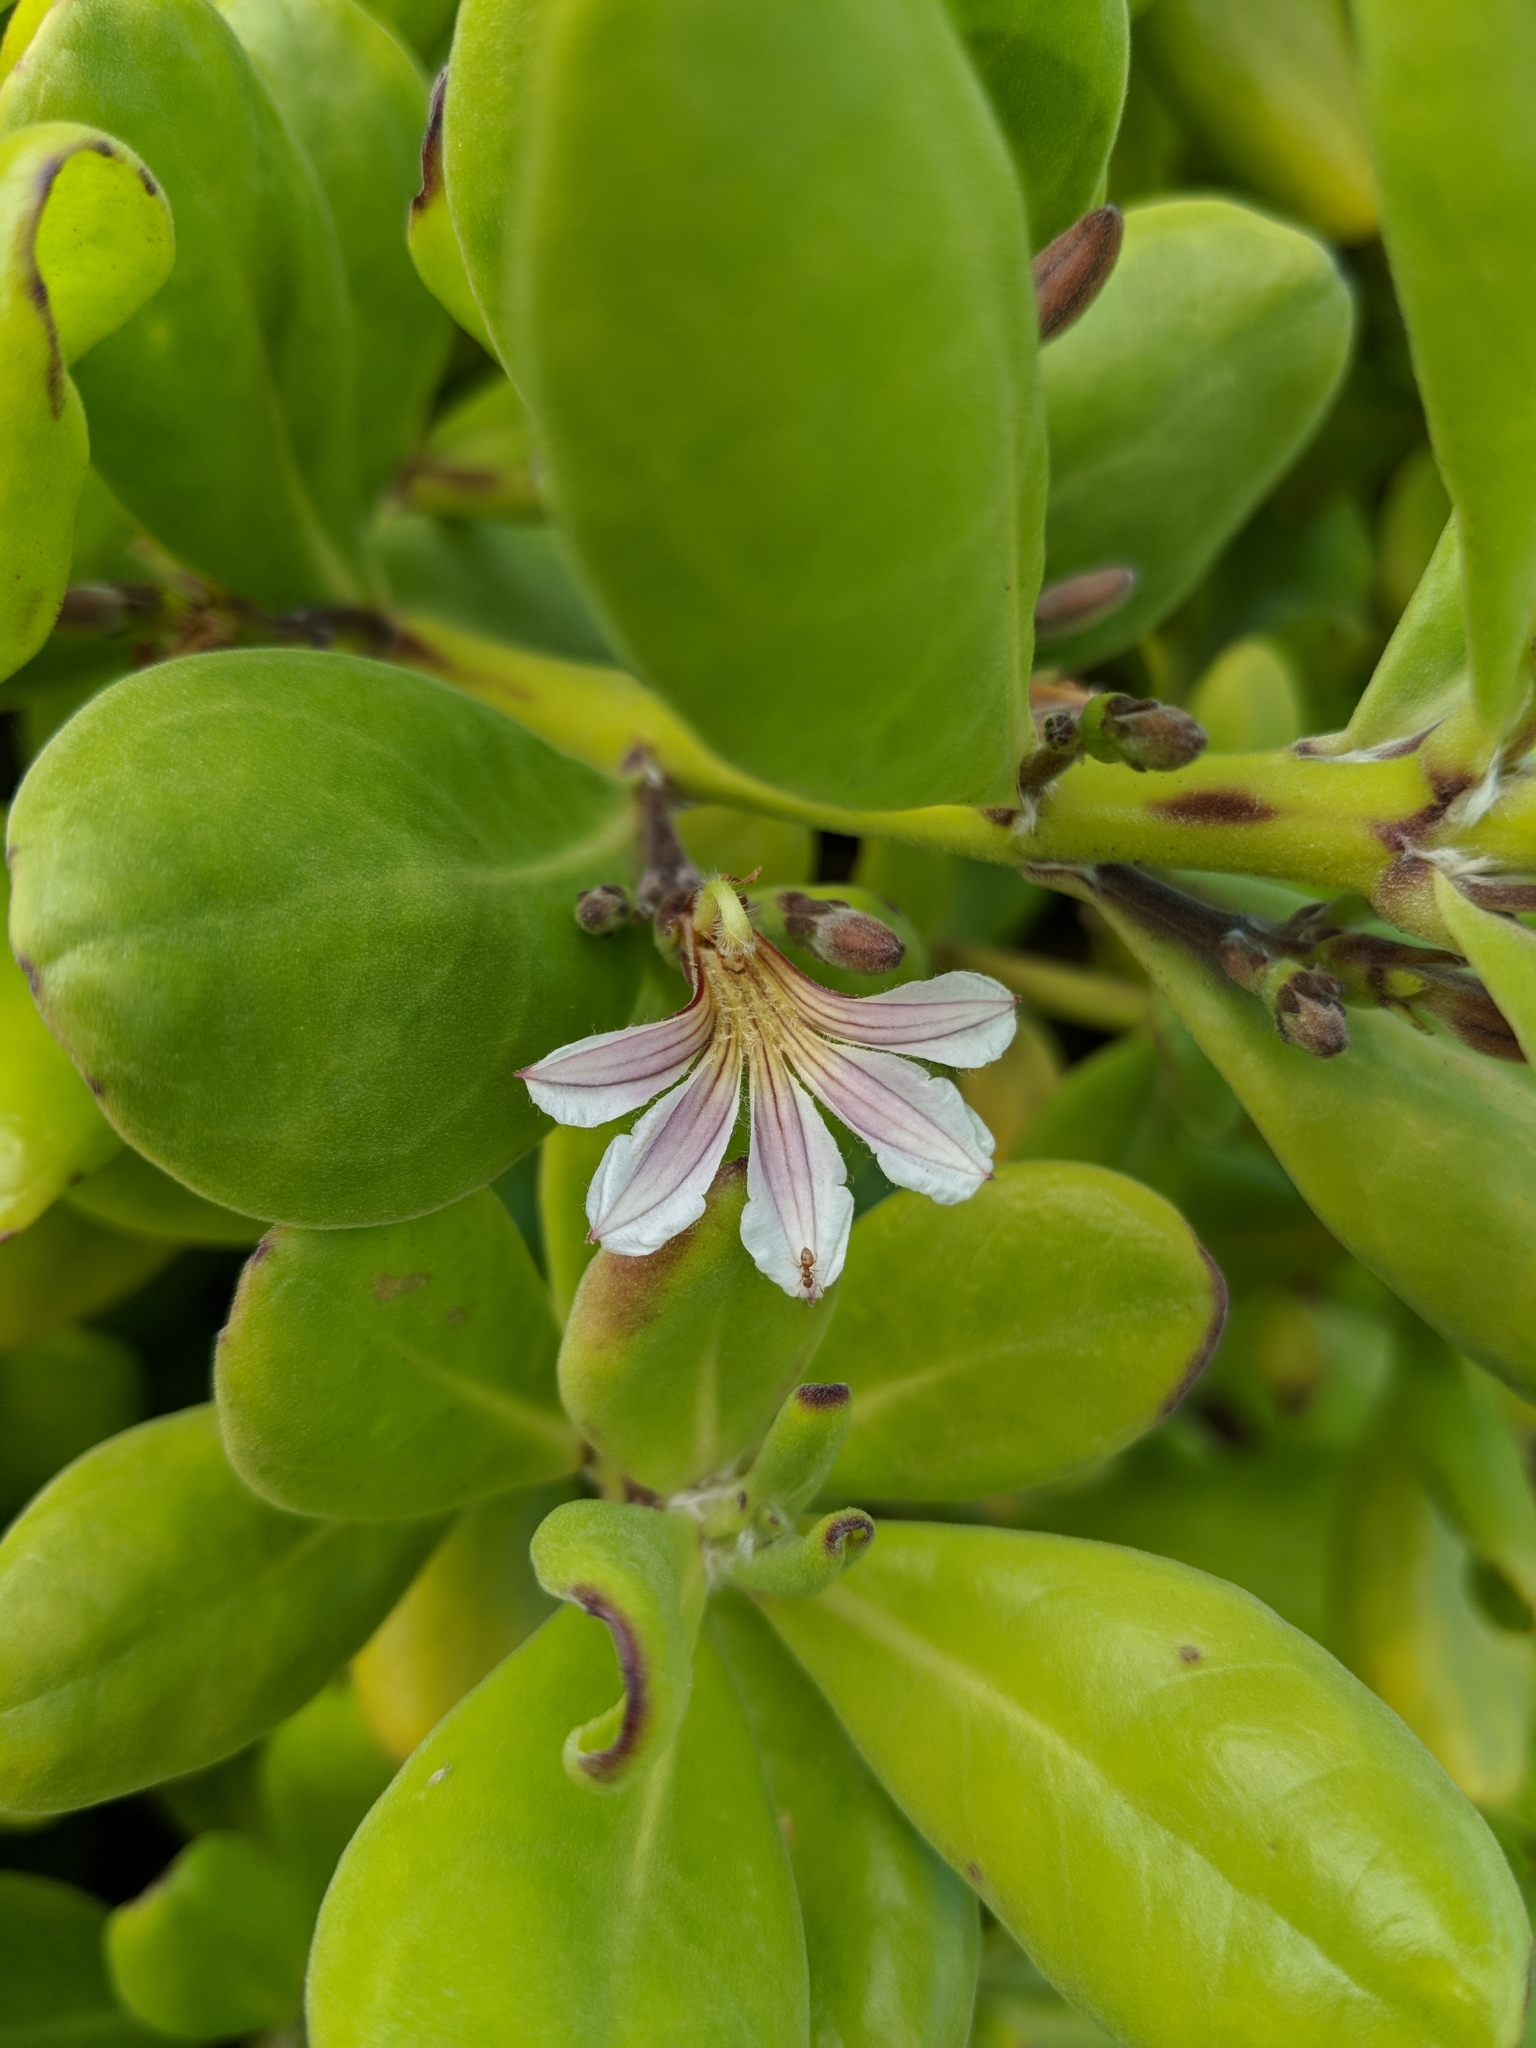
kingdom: Plantae
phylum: Tracheophyta
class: Magnoliopsida
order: Asterales
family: Goodeniaceae
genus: Scaevola
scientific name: Scaevola taccada
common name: Sea lettucetree
